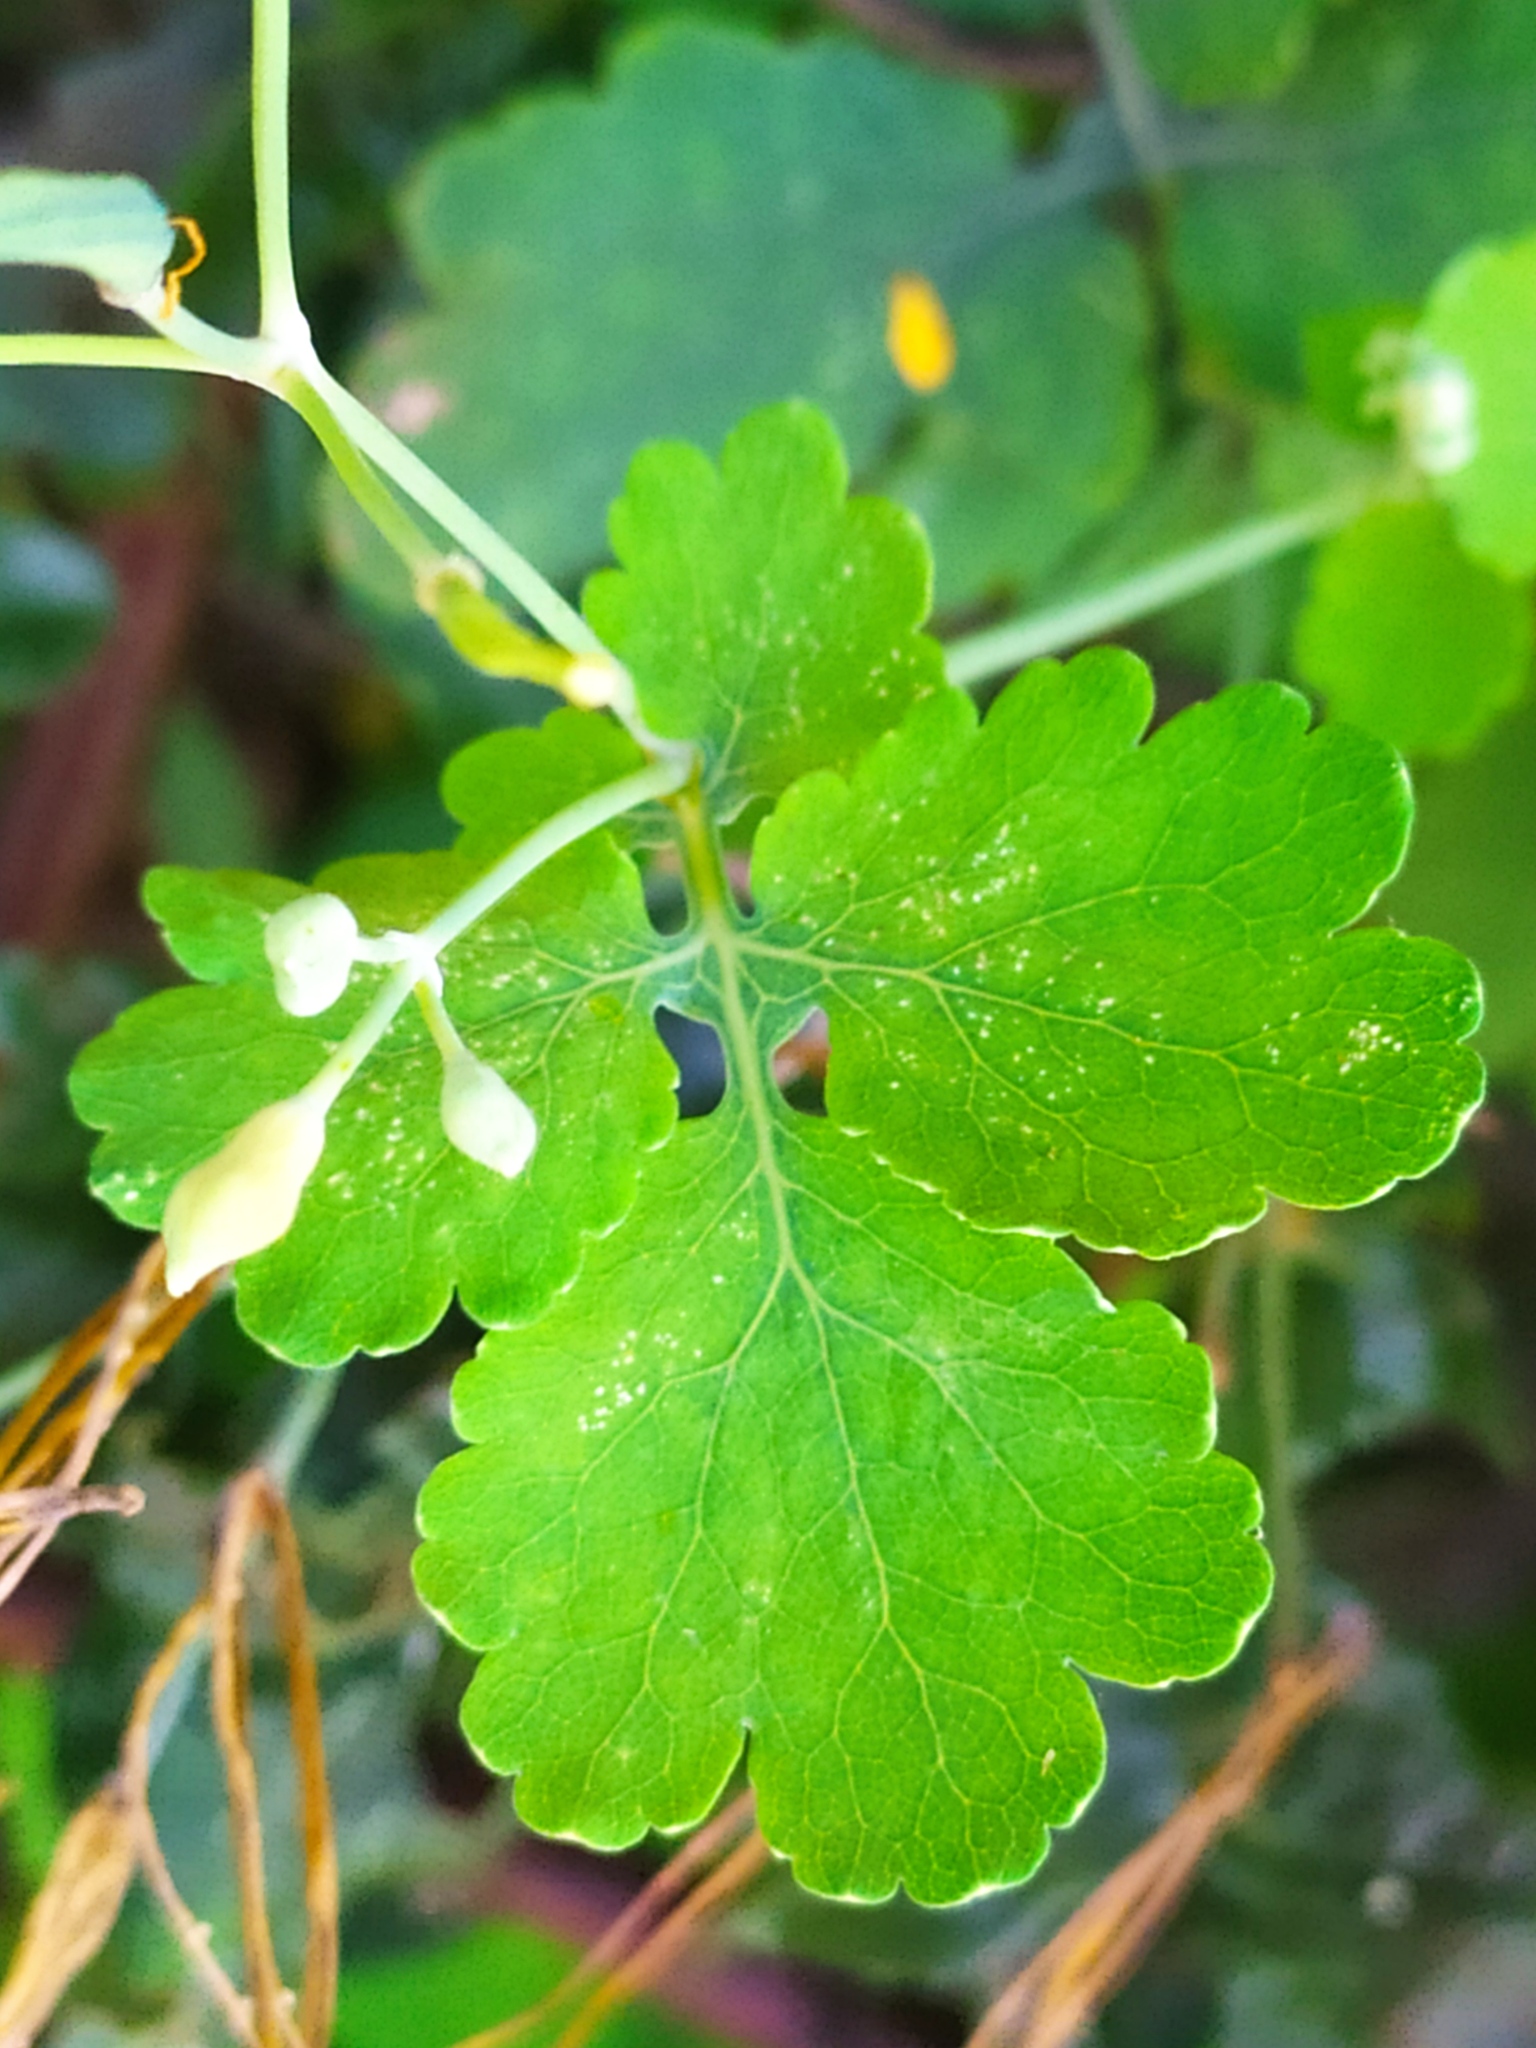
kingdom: Plantae
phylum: Tracheophyta
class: Magnoliopsida
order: Ranunculales
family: Papaveraceae
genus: Chelidonium
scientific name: Chelidonium majus
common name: Greater celandine
